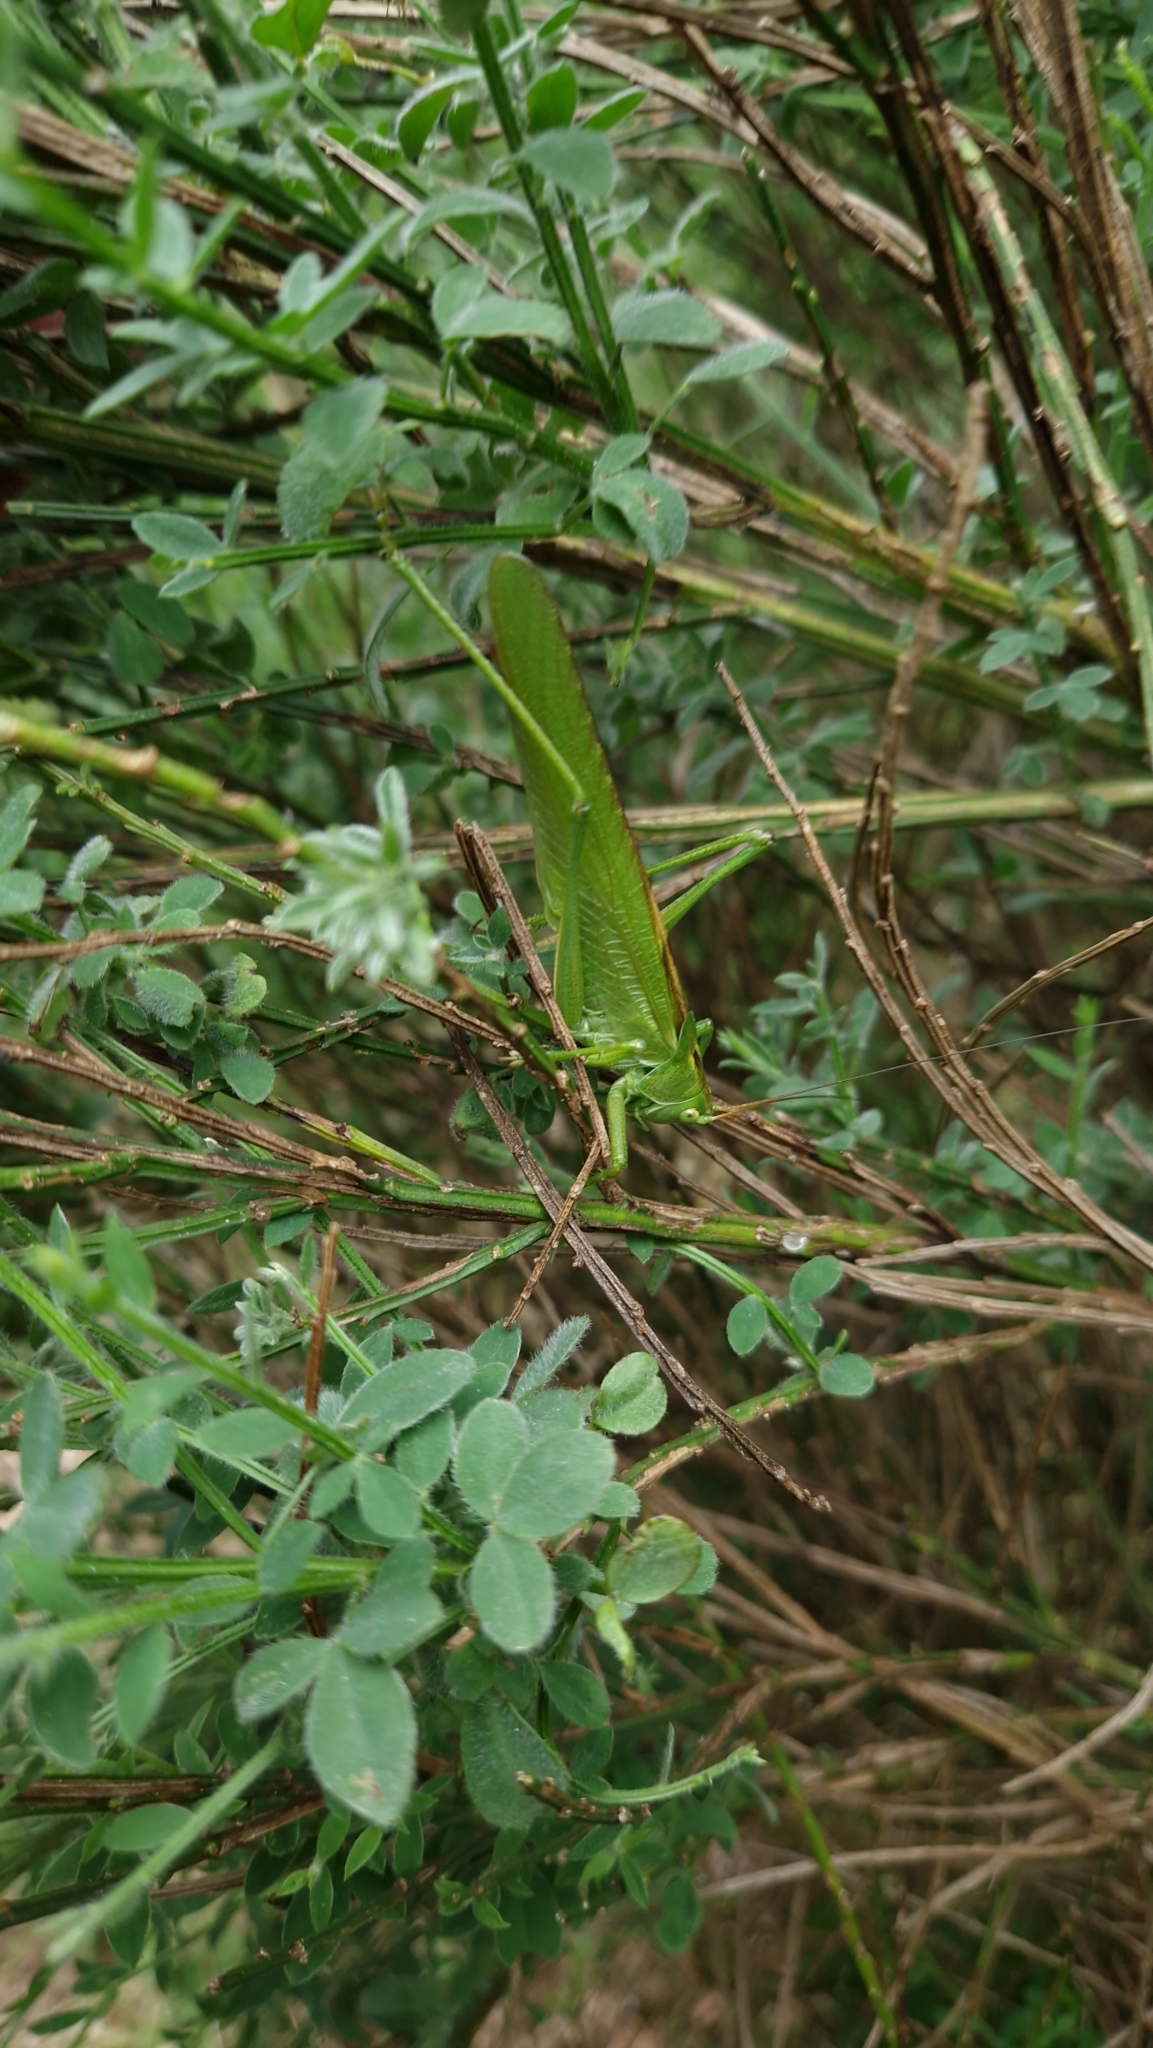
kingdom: Animalia
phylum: Arthropoda
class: Insecta
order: Orthoptera
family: Tettigoniidae
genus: Tettigonia
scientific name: Tettigonia viridissima
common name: Great green bush-cricket
